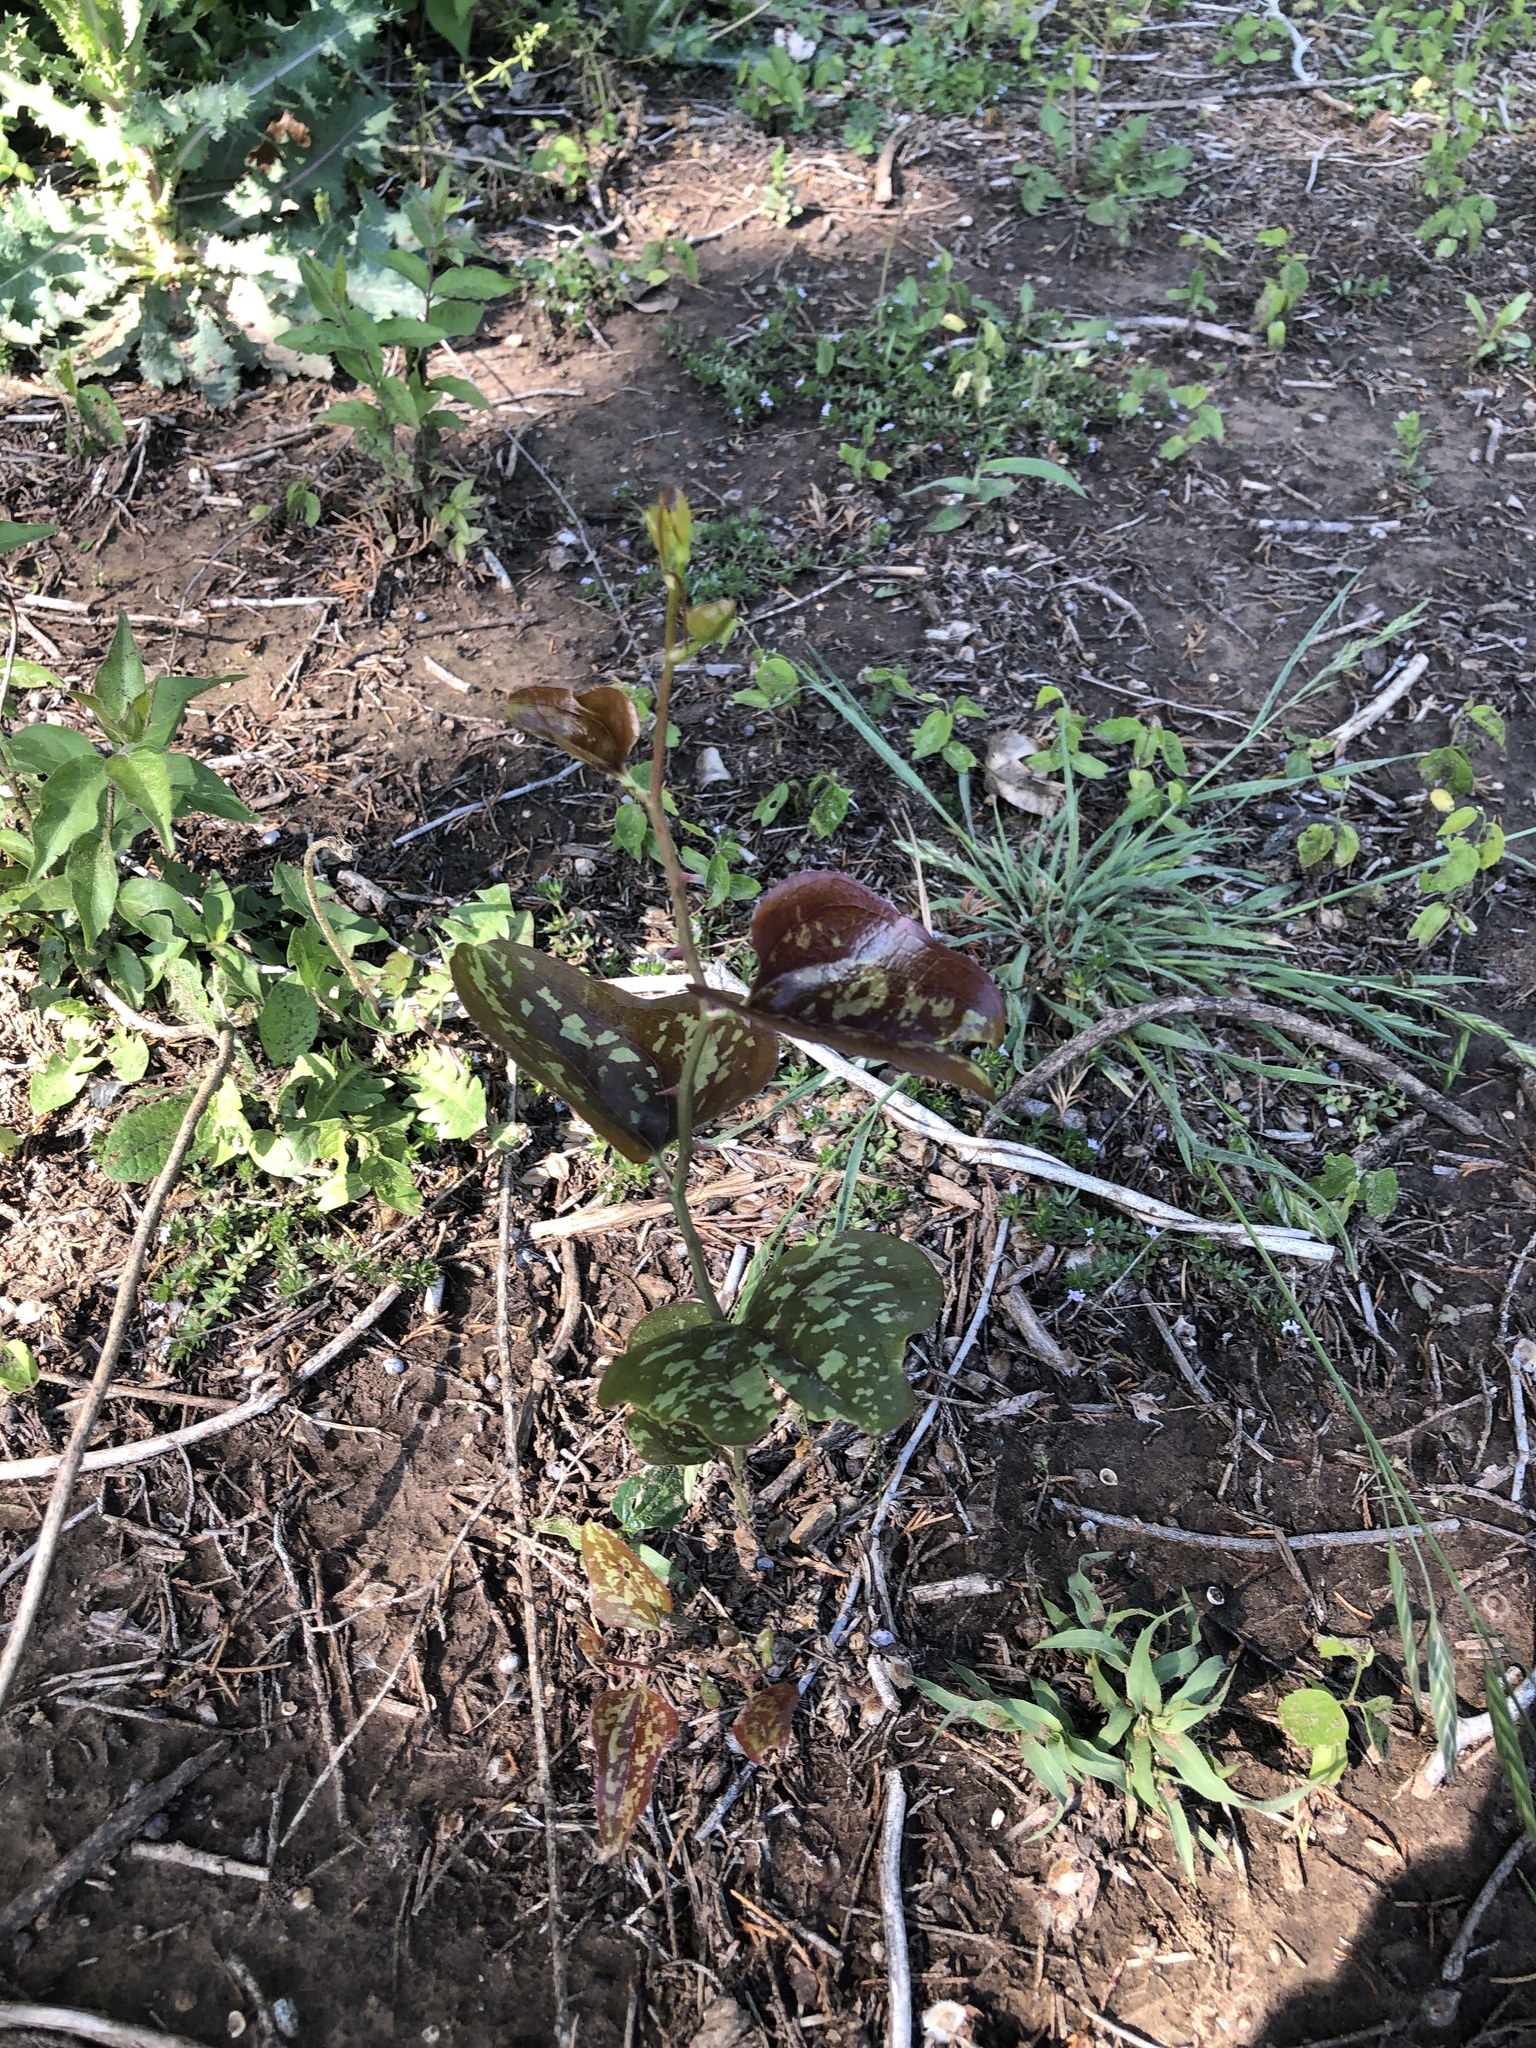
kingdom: Plantae
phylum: Tracheophyta
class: Liliopsida
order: Liliales
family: Smilacaceae
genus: Smilax
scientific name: Smilax bona-nox
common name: Catbrier
